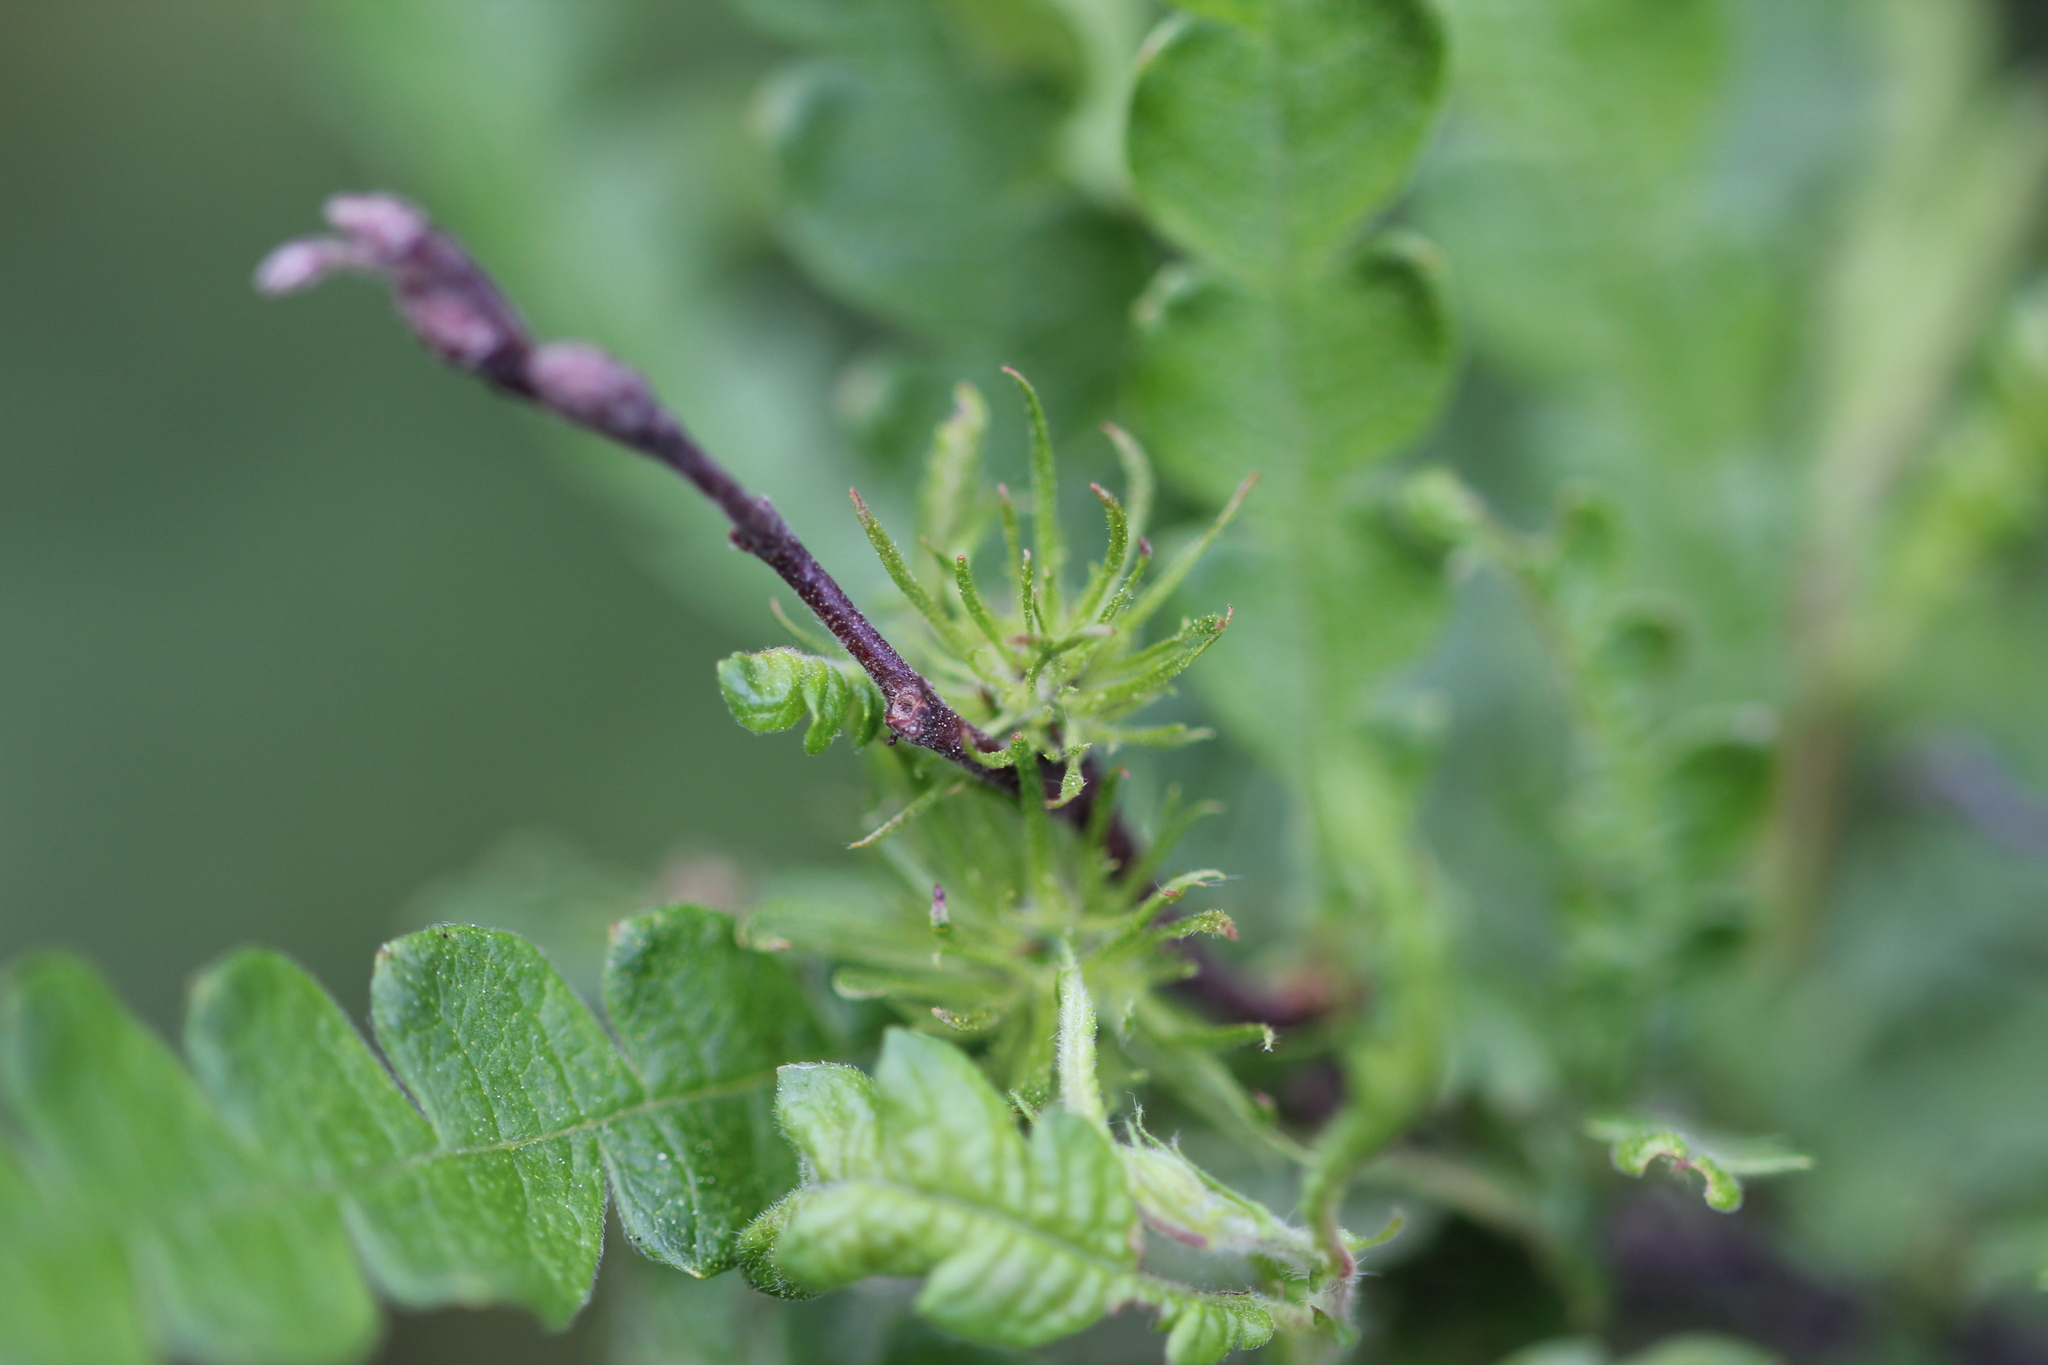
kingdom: Plantae
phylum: Tracheophyta
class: Magnoliopsida
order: Fagales
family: Myricaceae
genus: Comptonia
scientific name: Comptonia peregrina
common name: Sweet-fern
